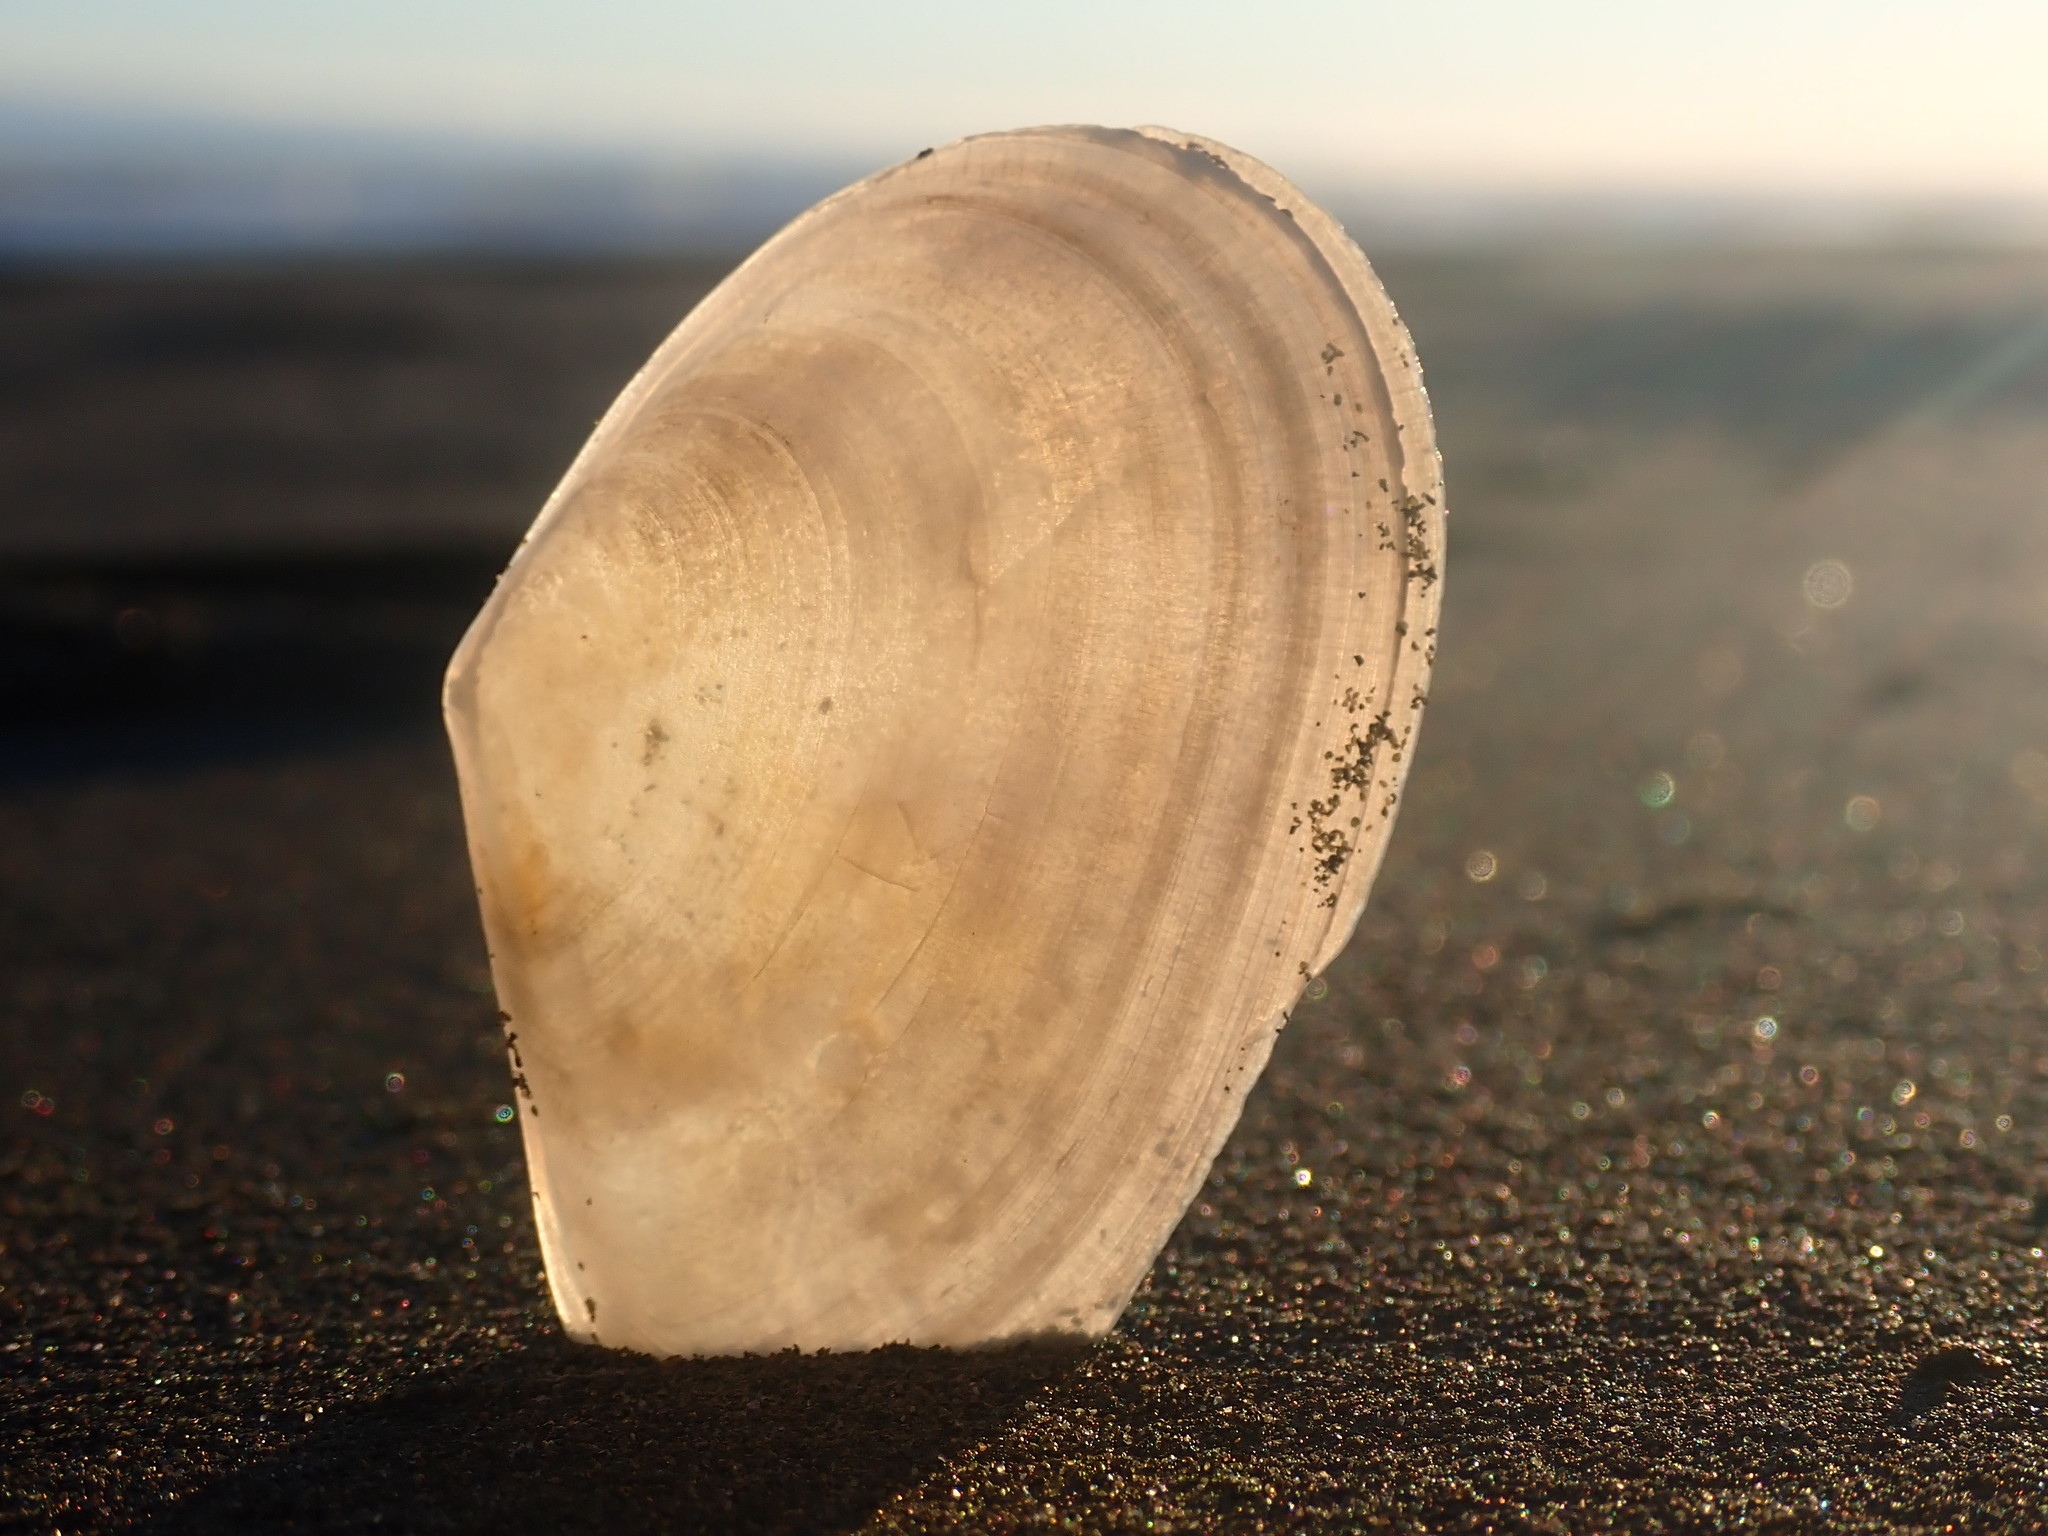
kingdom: Animalia
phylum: Mollusca
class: Bivalvia
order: Cardiida
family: Tellinidae
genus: Bartschicoma
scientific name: Bartschicoma edgari
